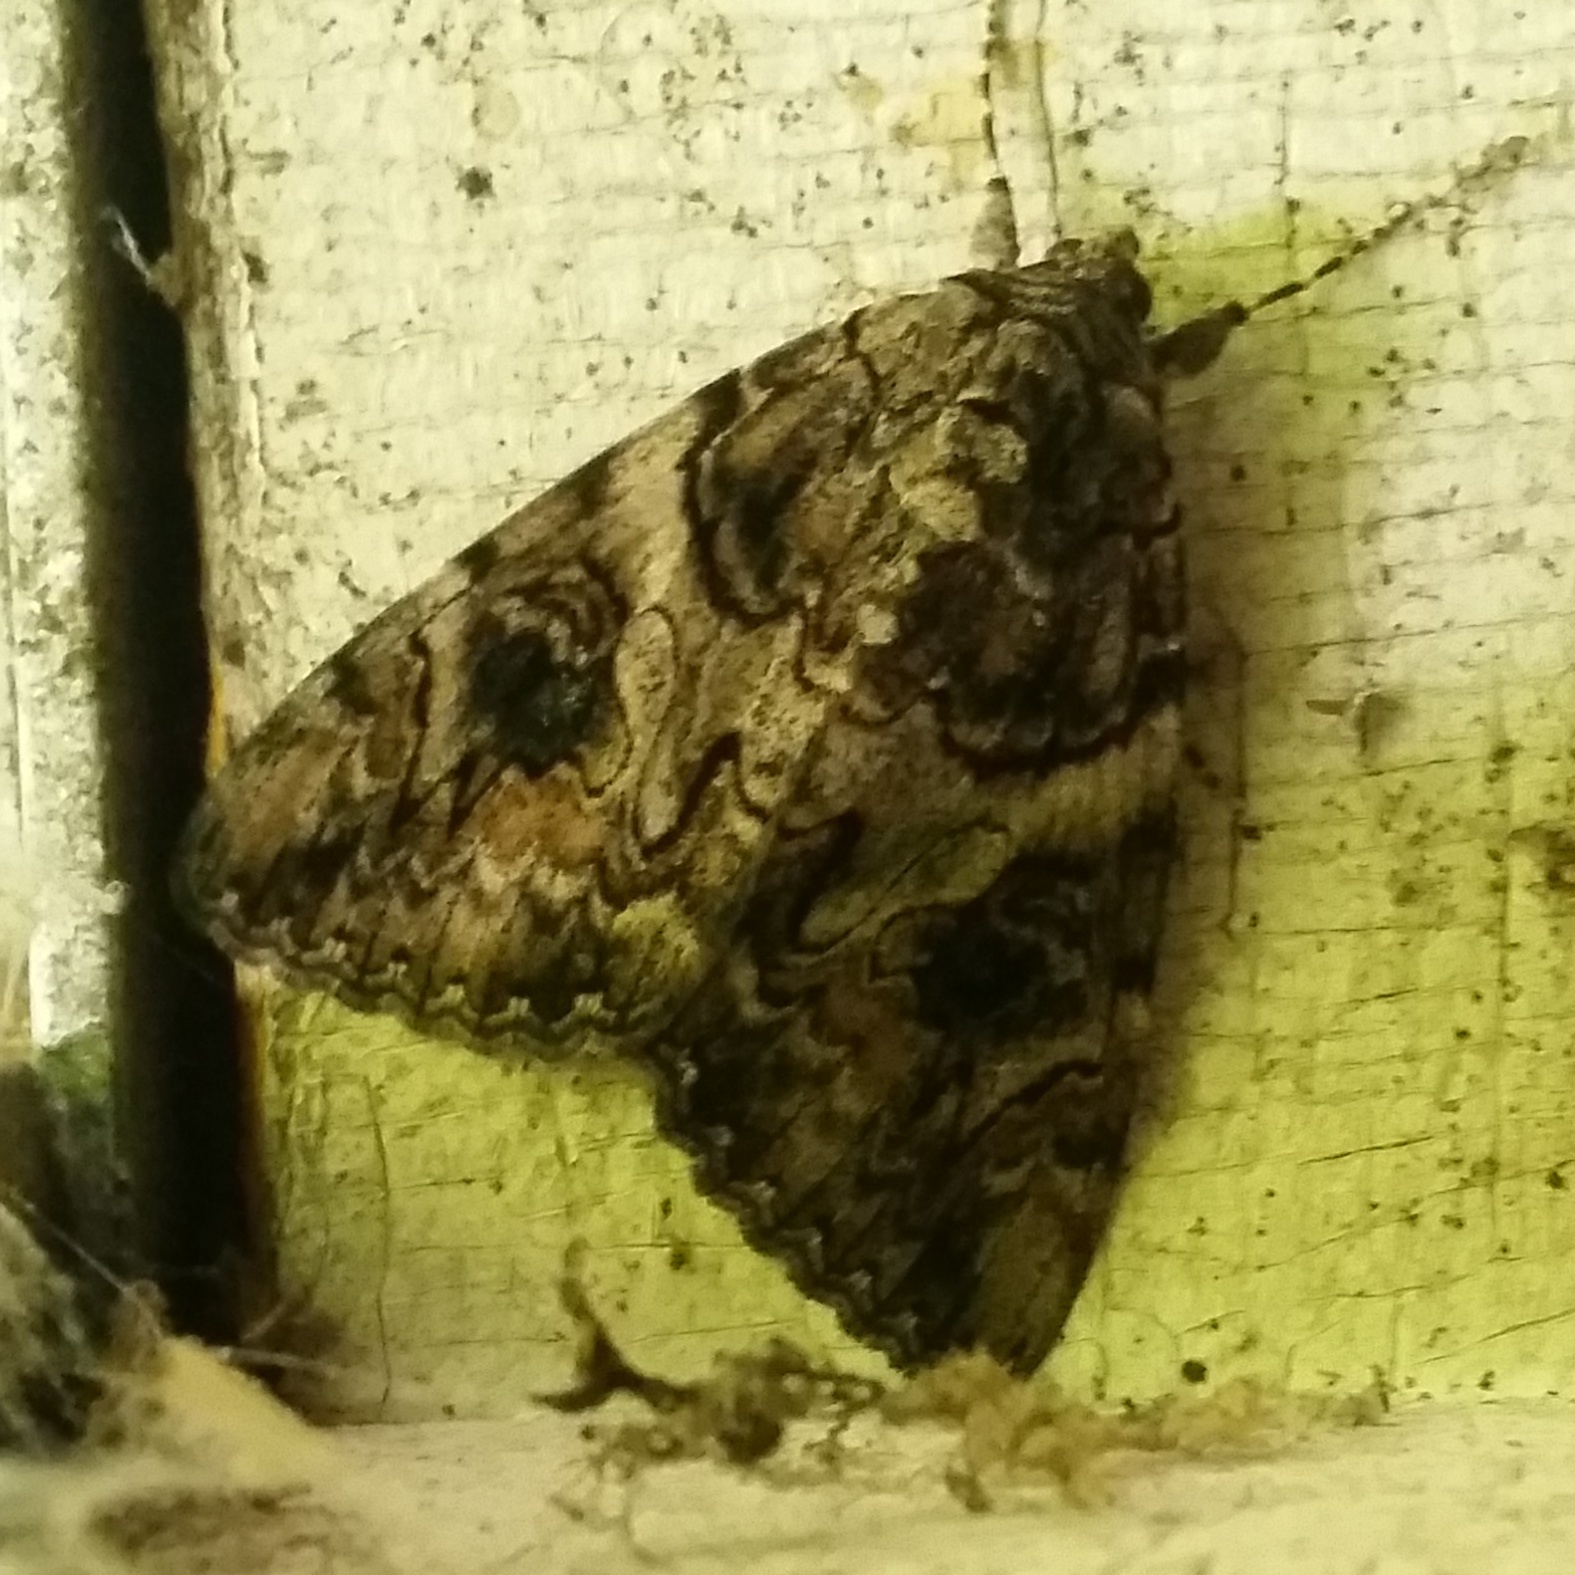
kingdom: Animalia
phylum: Arthropoda
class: Insecta
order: Lepidoptera
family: Erebidae
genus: Catocala
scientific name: Catocala piatrix
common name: The penitent underwing
